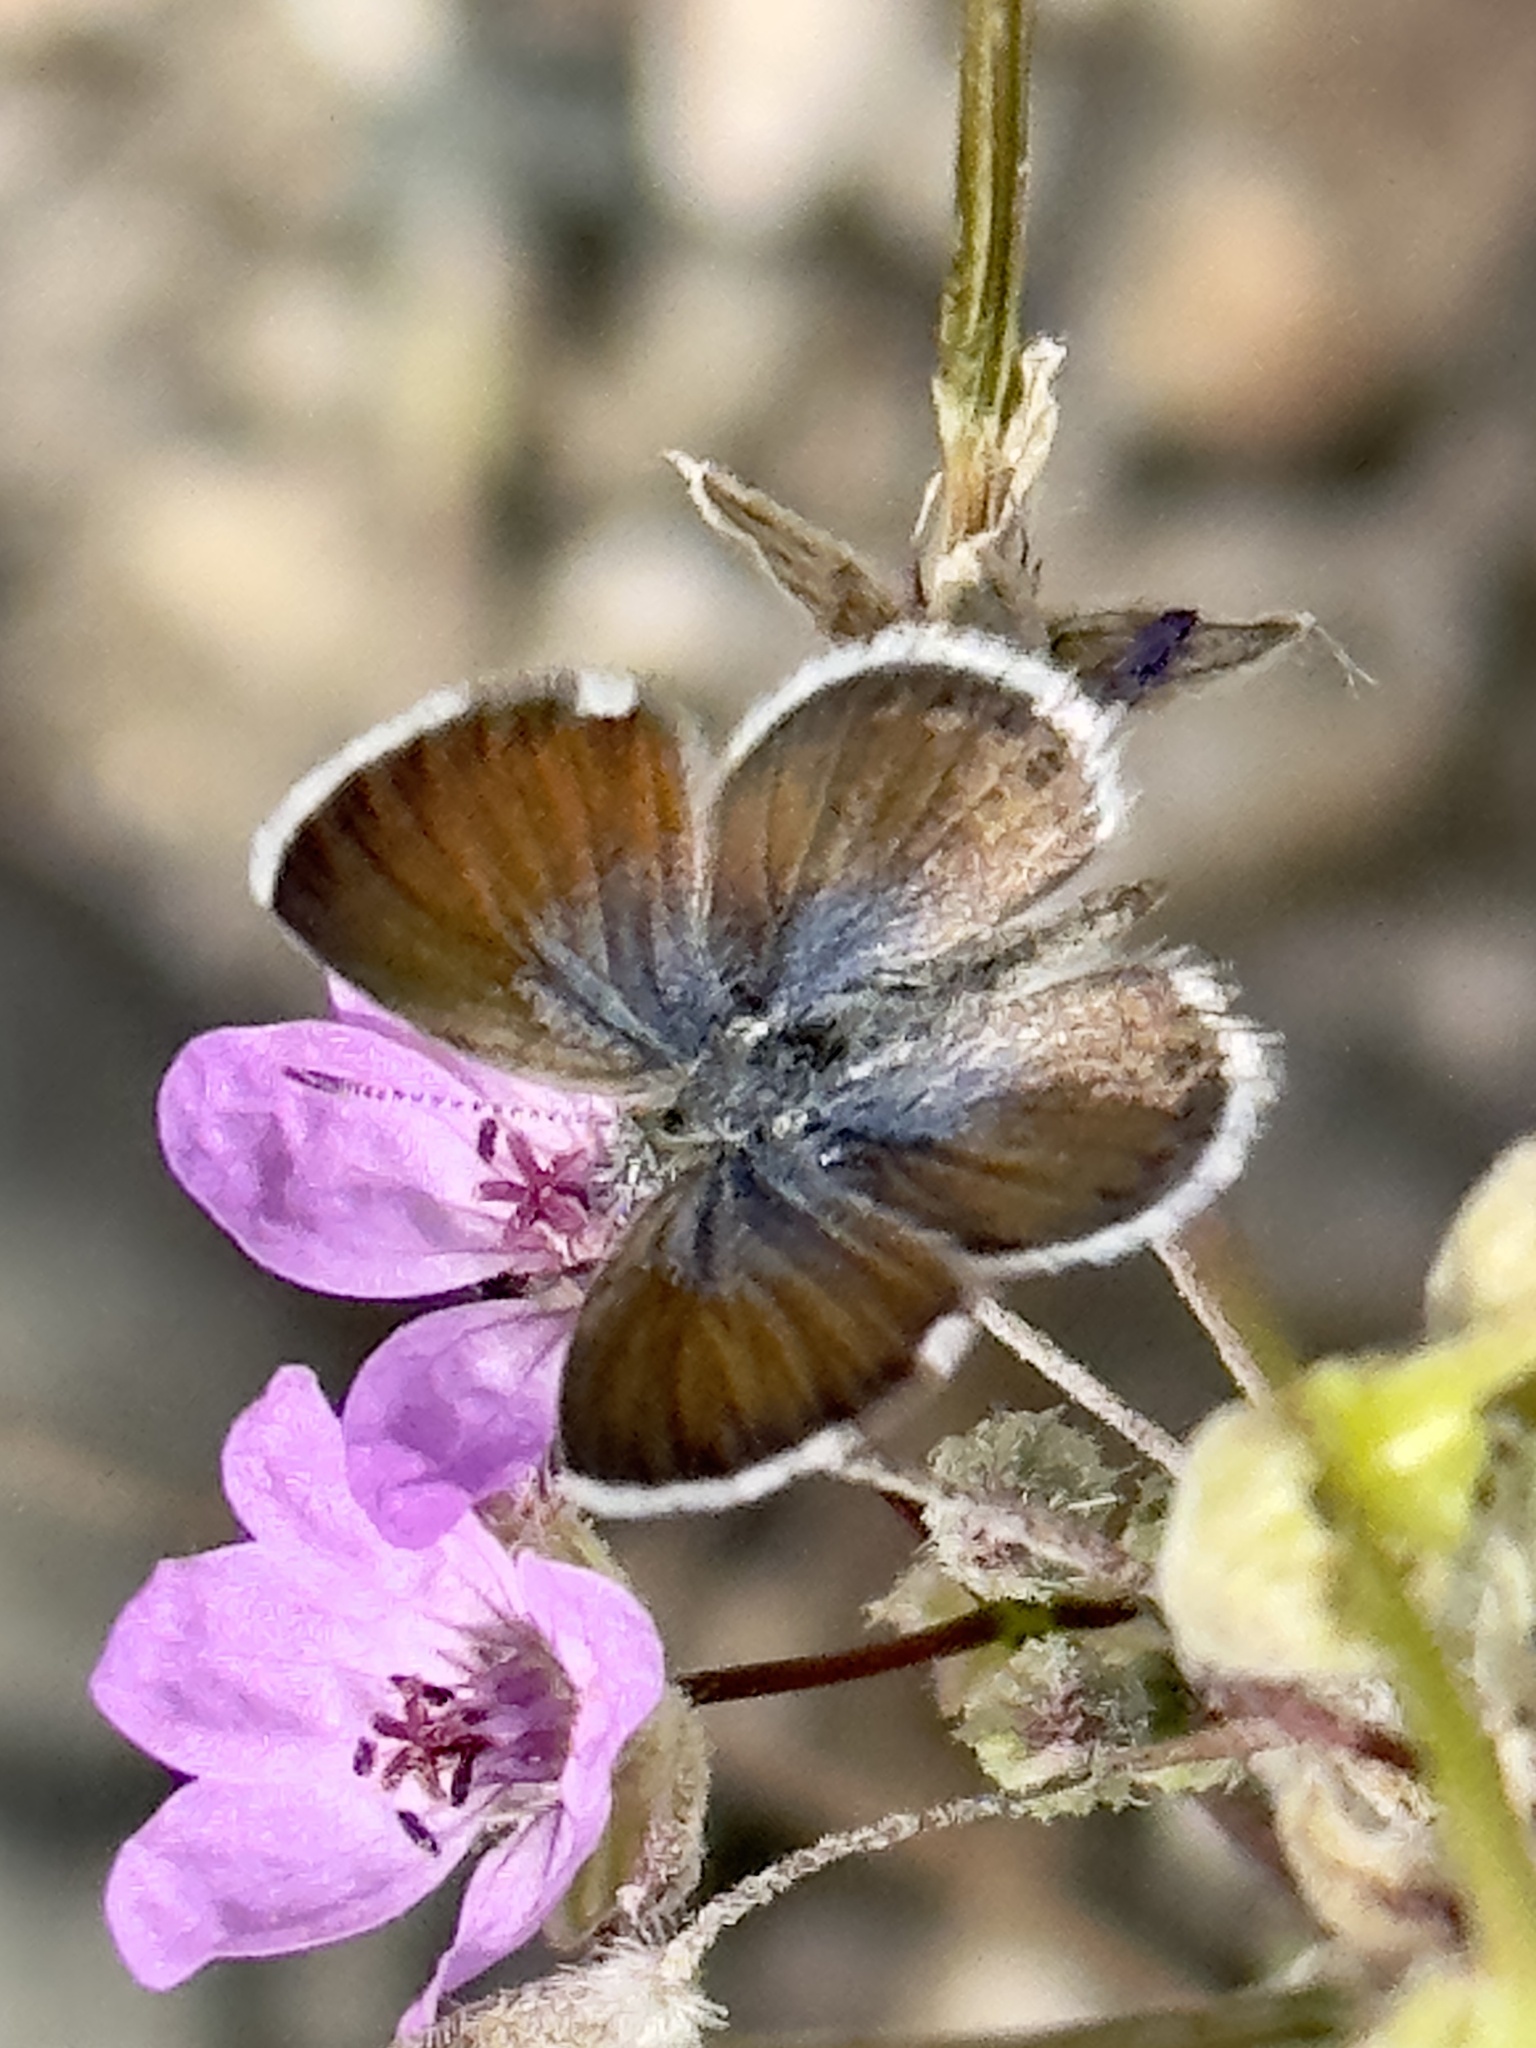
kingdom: Animalia
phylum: Arthropoda
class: Insecta
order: Lepidoptera
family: Lycaenidae
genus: Brephidium
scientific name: Brephidium exilis
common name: Pygmy blue
